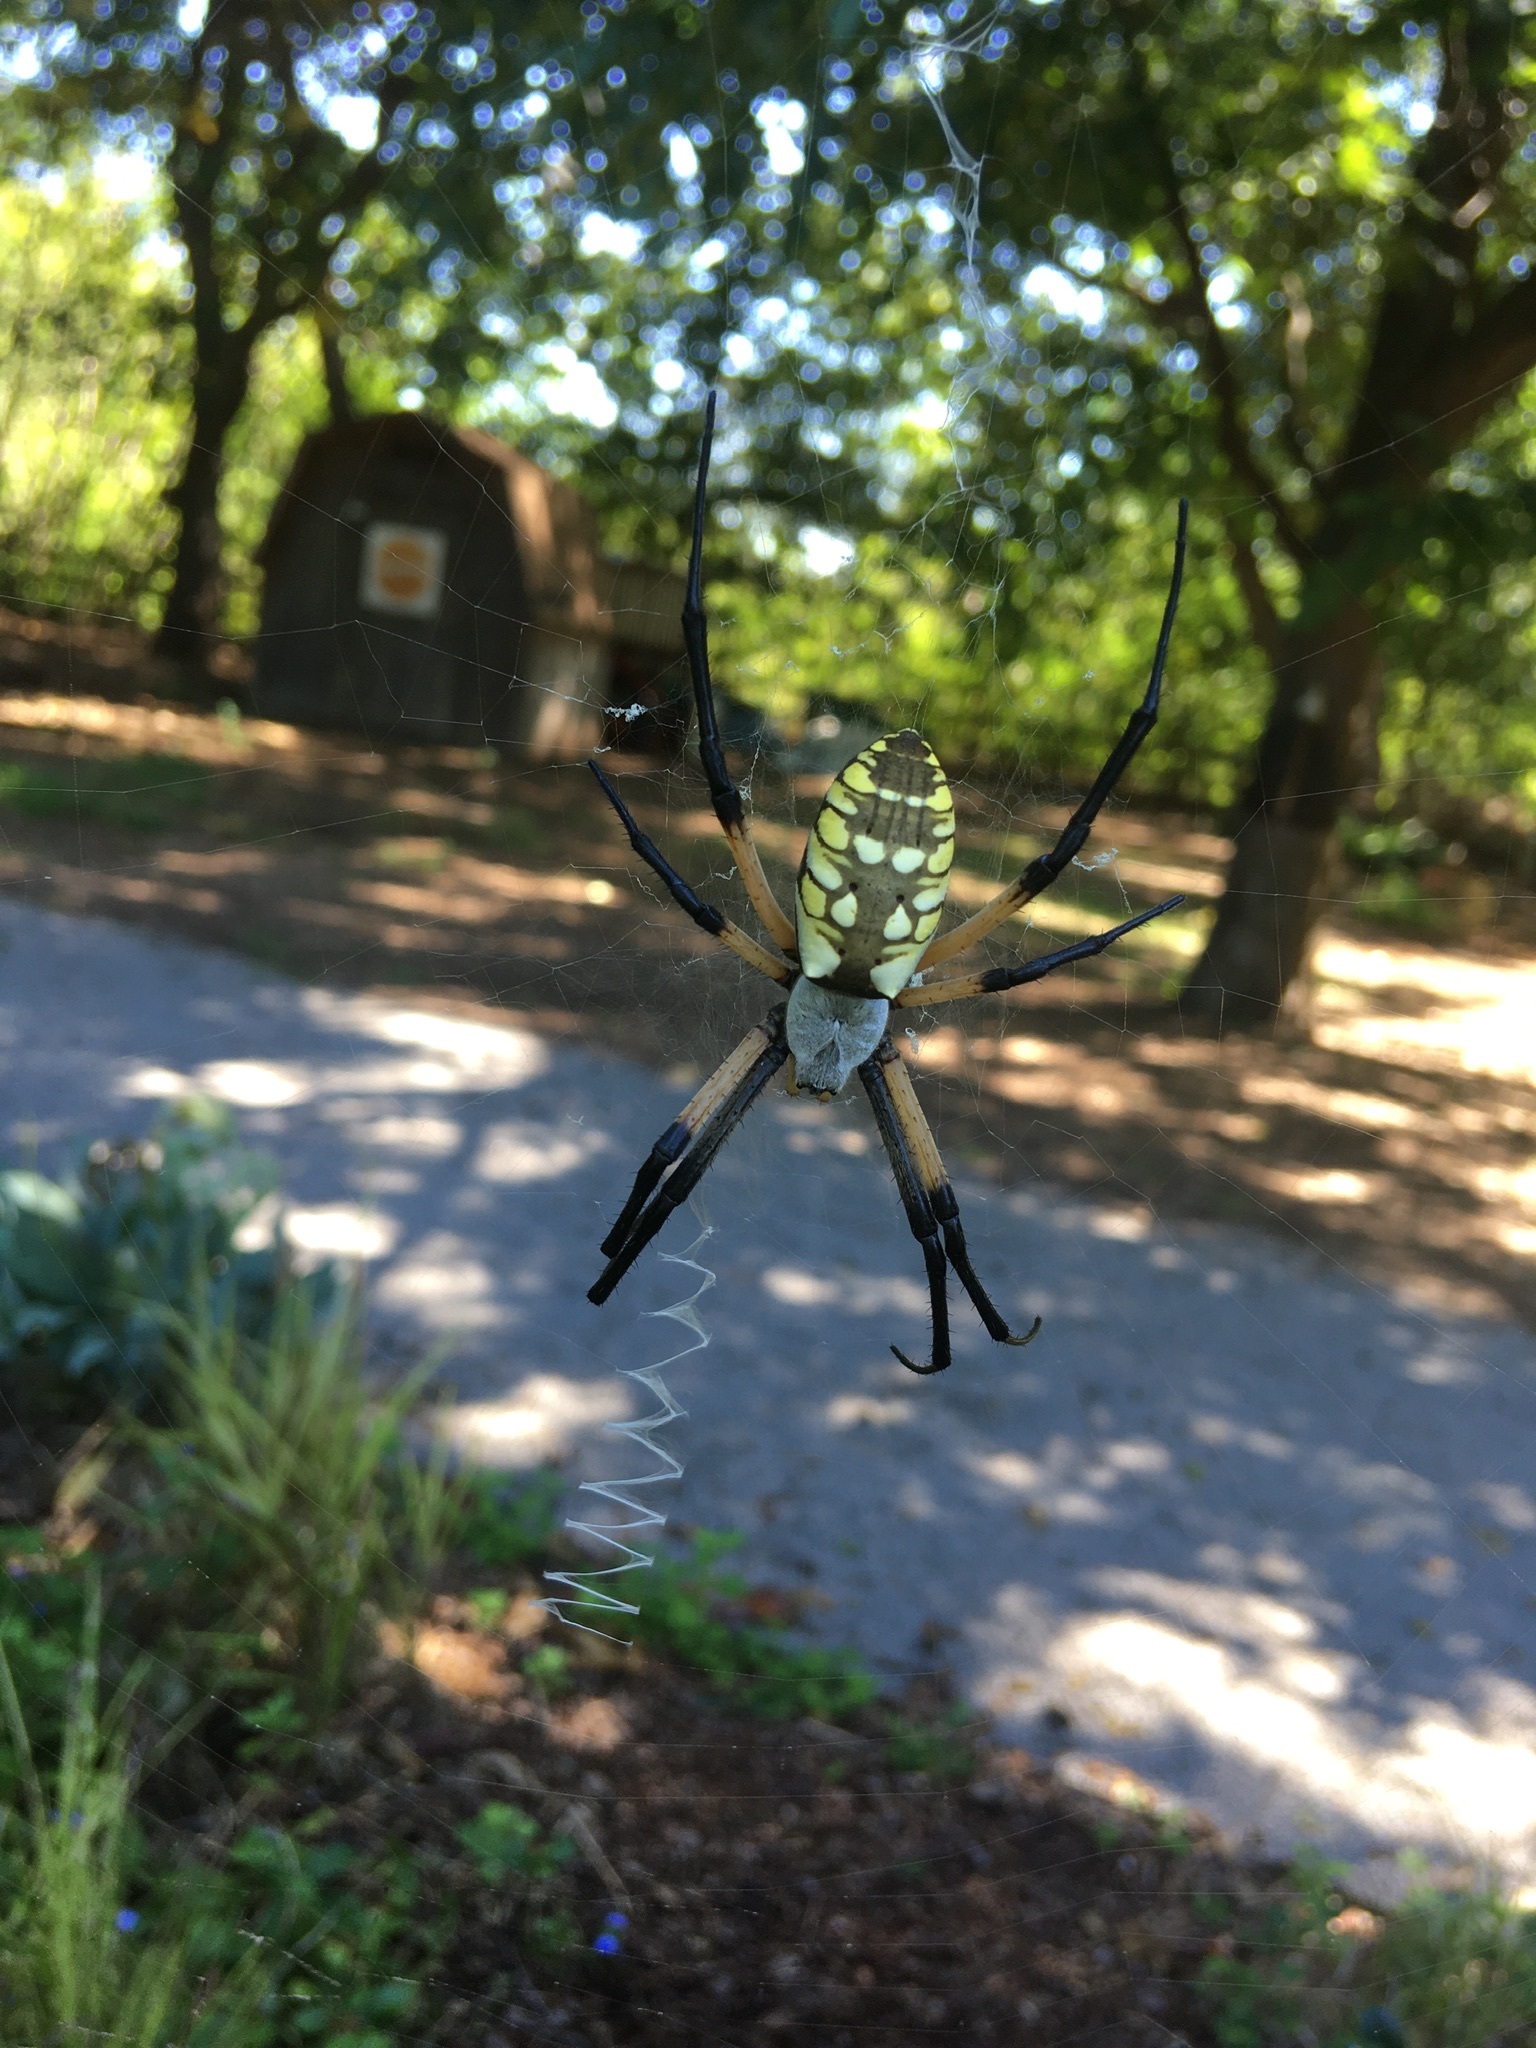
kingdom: Animalia
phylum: Arthropoda
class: Arachnida
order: Araneae
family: Araneidae
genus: Argiope
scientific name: Argiope aurantia
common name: Orb weavers
